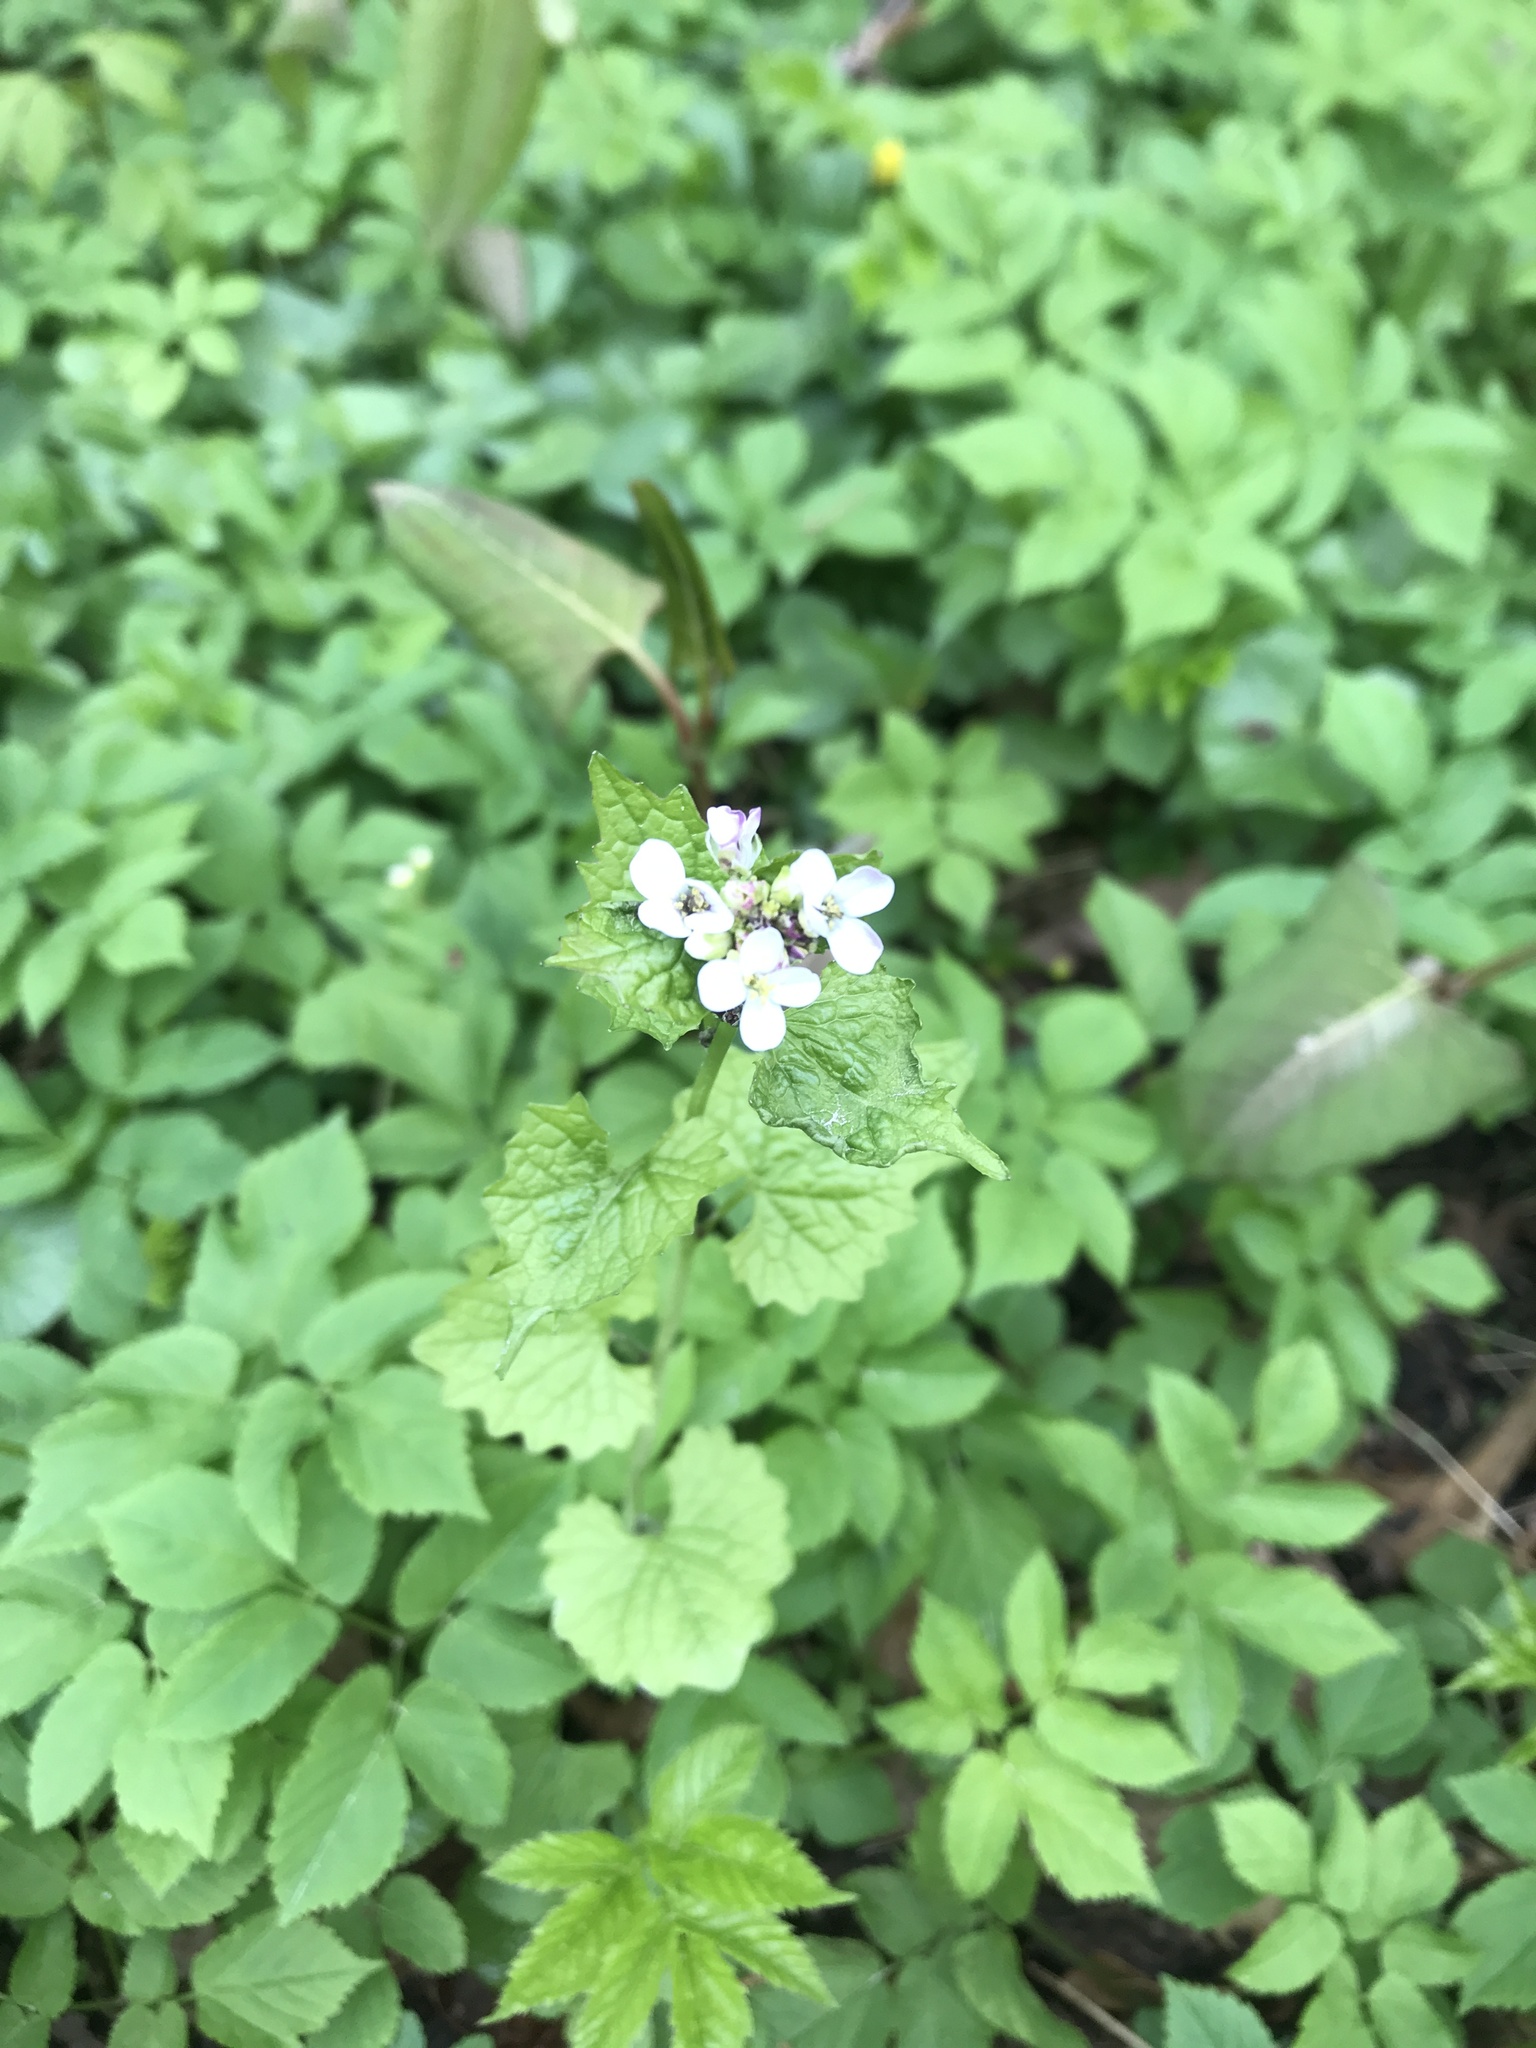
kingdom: Plantae
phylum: Tracheophyta
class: Magnoliopsida
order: Brassicales
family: Brassicaceae
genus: Alliaria
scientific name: Alliaria petiolata
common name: Garlic mustard
